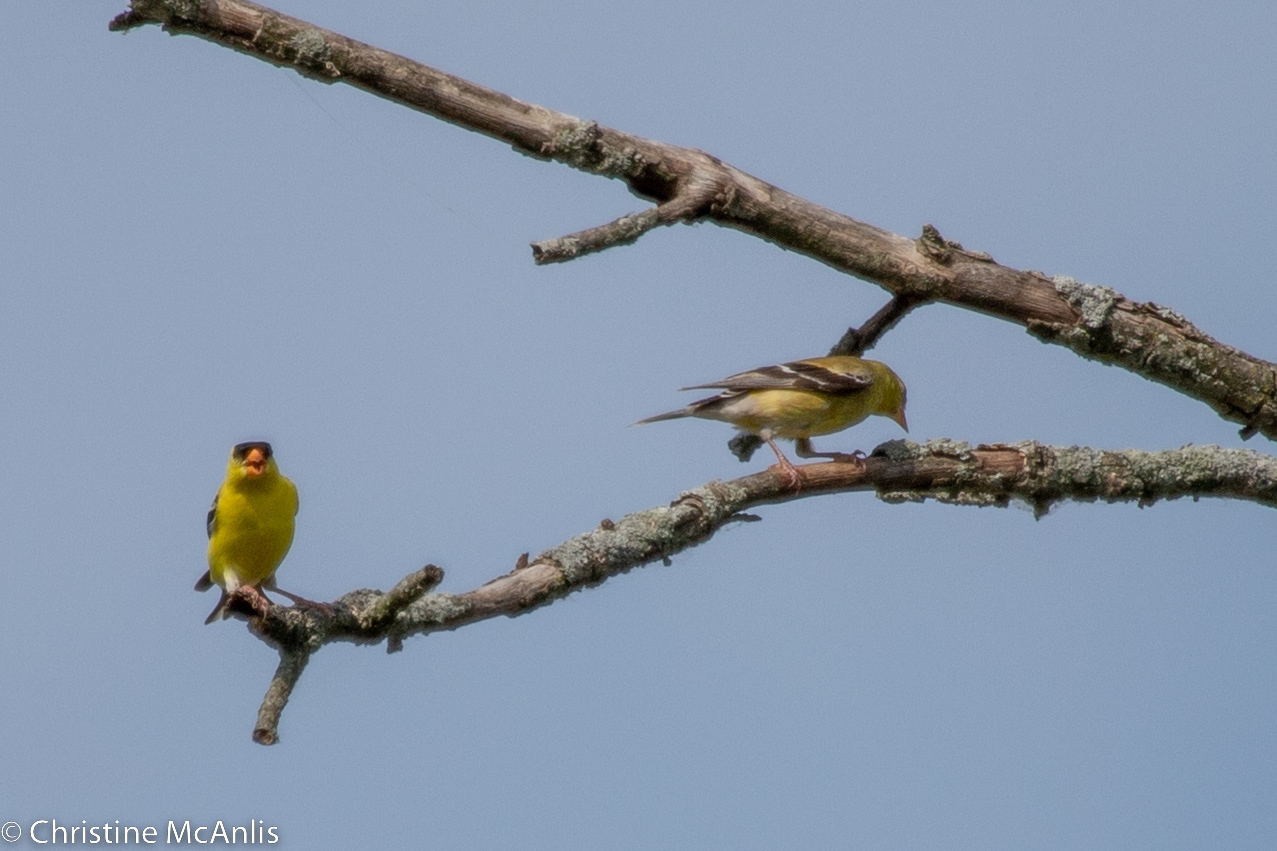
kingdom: Animalia
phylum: Chordata
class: Aves
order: Passeriformes
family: Fringillidae
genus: Spinus
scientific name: Spinus tristis
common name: American goldfinch
